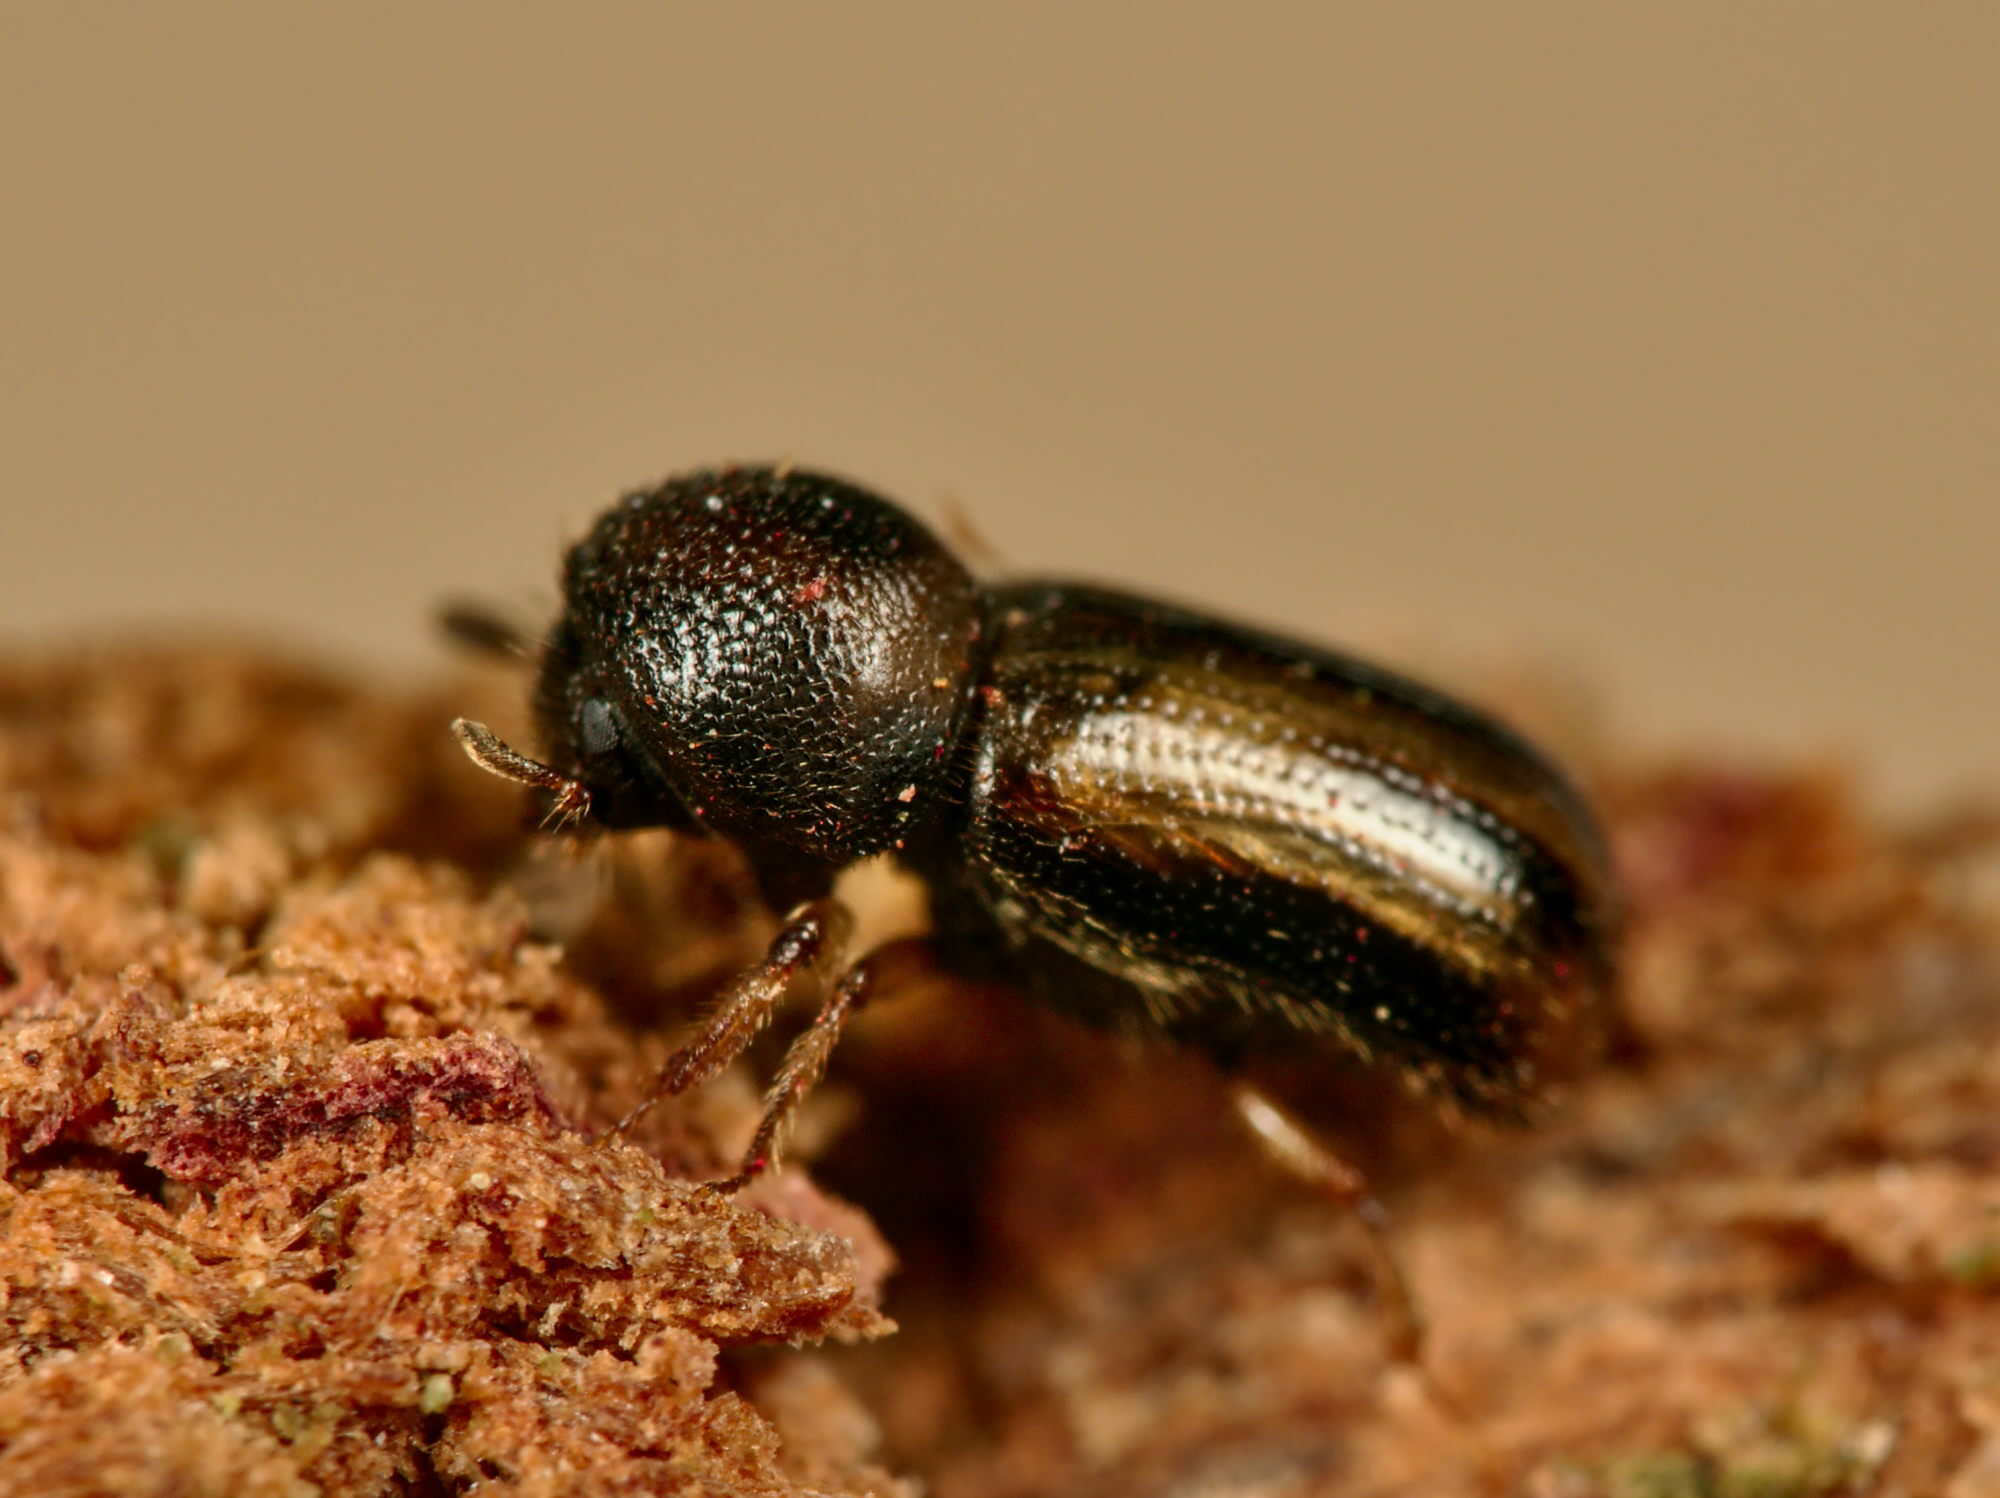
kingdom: Animalia
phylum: Arthropoda
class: Insecta
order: Coleoptera
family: Curculionidae
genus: Trypodendron
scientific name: Trypodendron signatum
